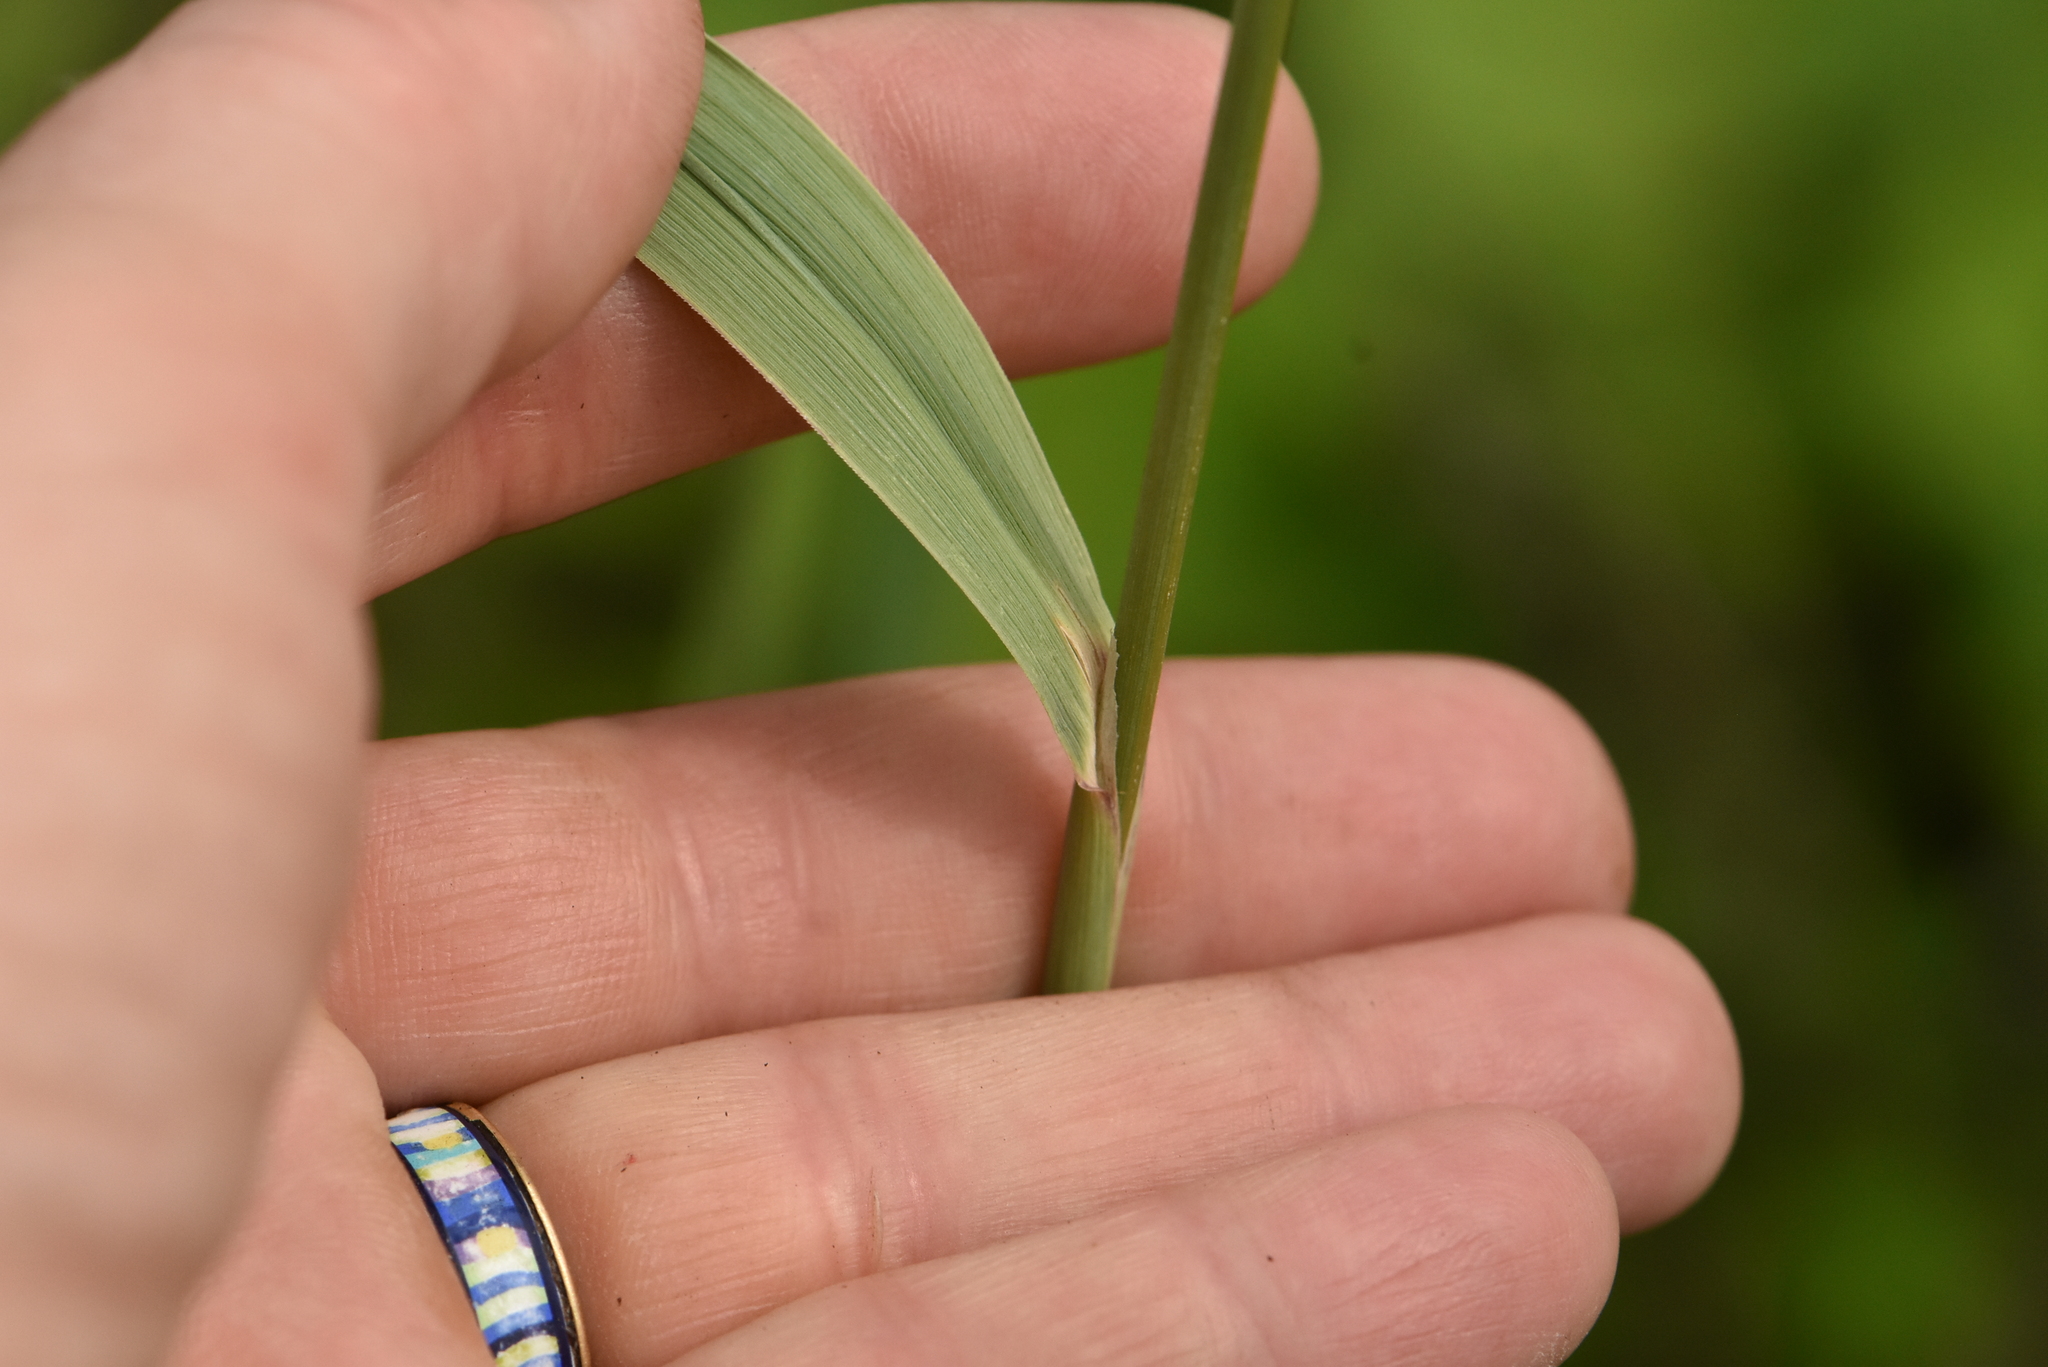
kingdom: Plantae
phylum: Tracheophyta
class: Liliopsida
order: Poales
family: Poaceae
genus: Calamagrostis
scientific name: Calamagrostis epigejos
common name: Wood small-reed
